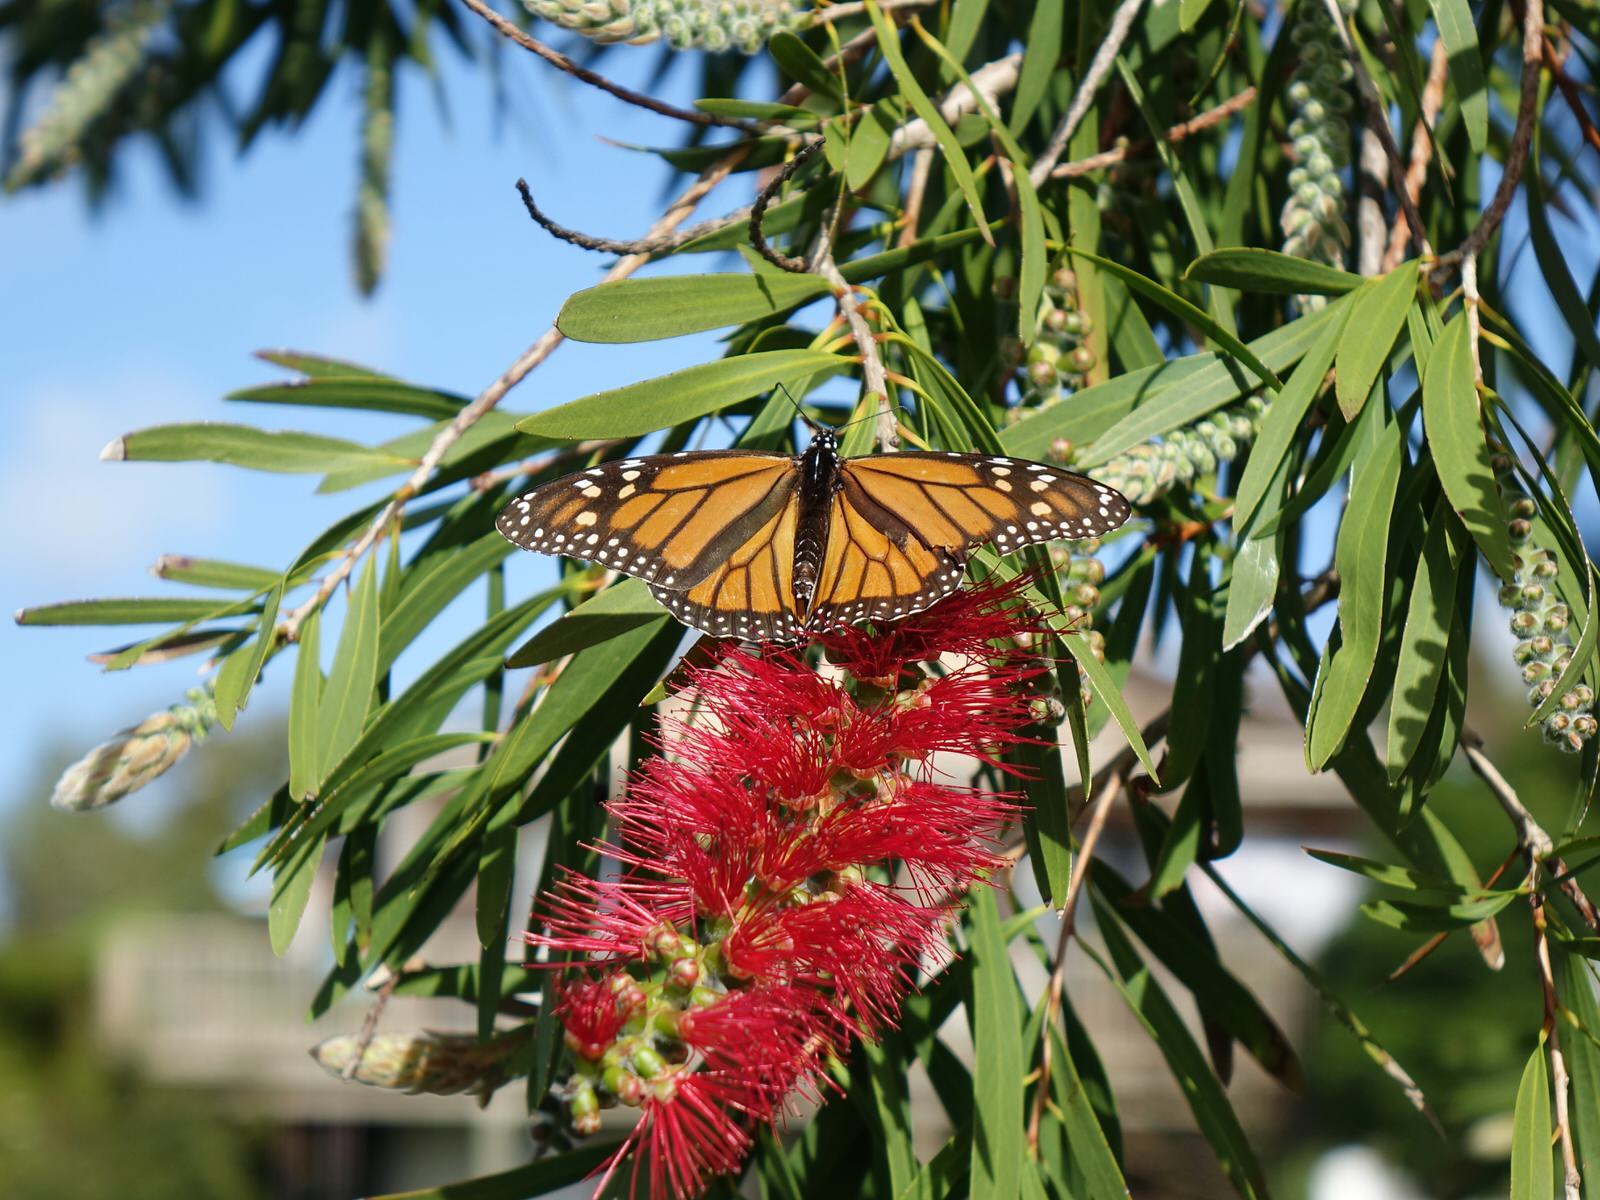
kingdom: Animalia
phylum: Arthropoda
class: Insecta
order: Lepidoptera
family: Nymphalidae
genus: Danaus
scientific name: Danaus plexippus
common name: Monarch
